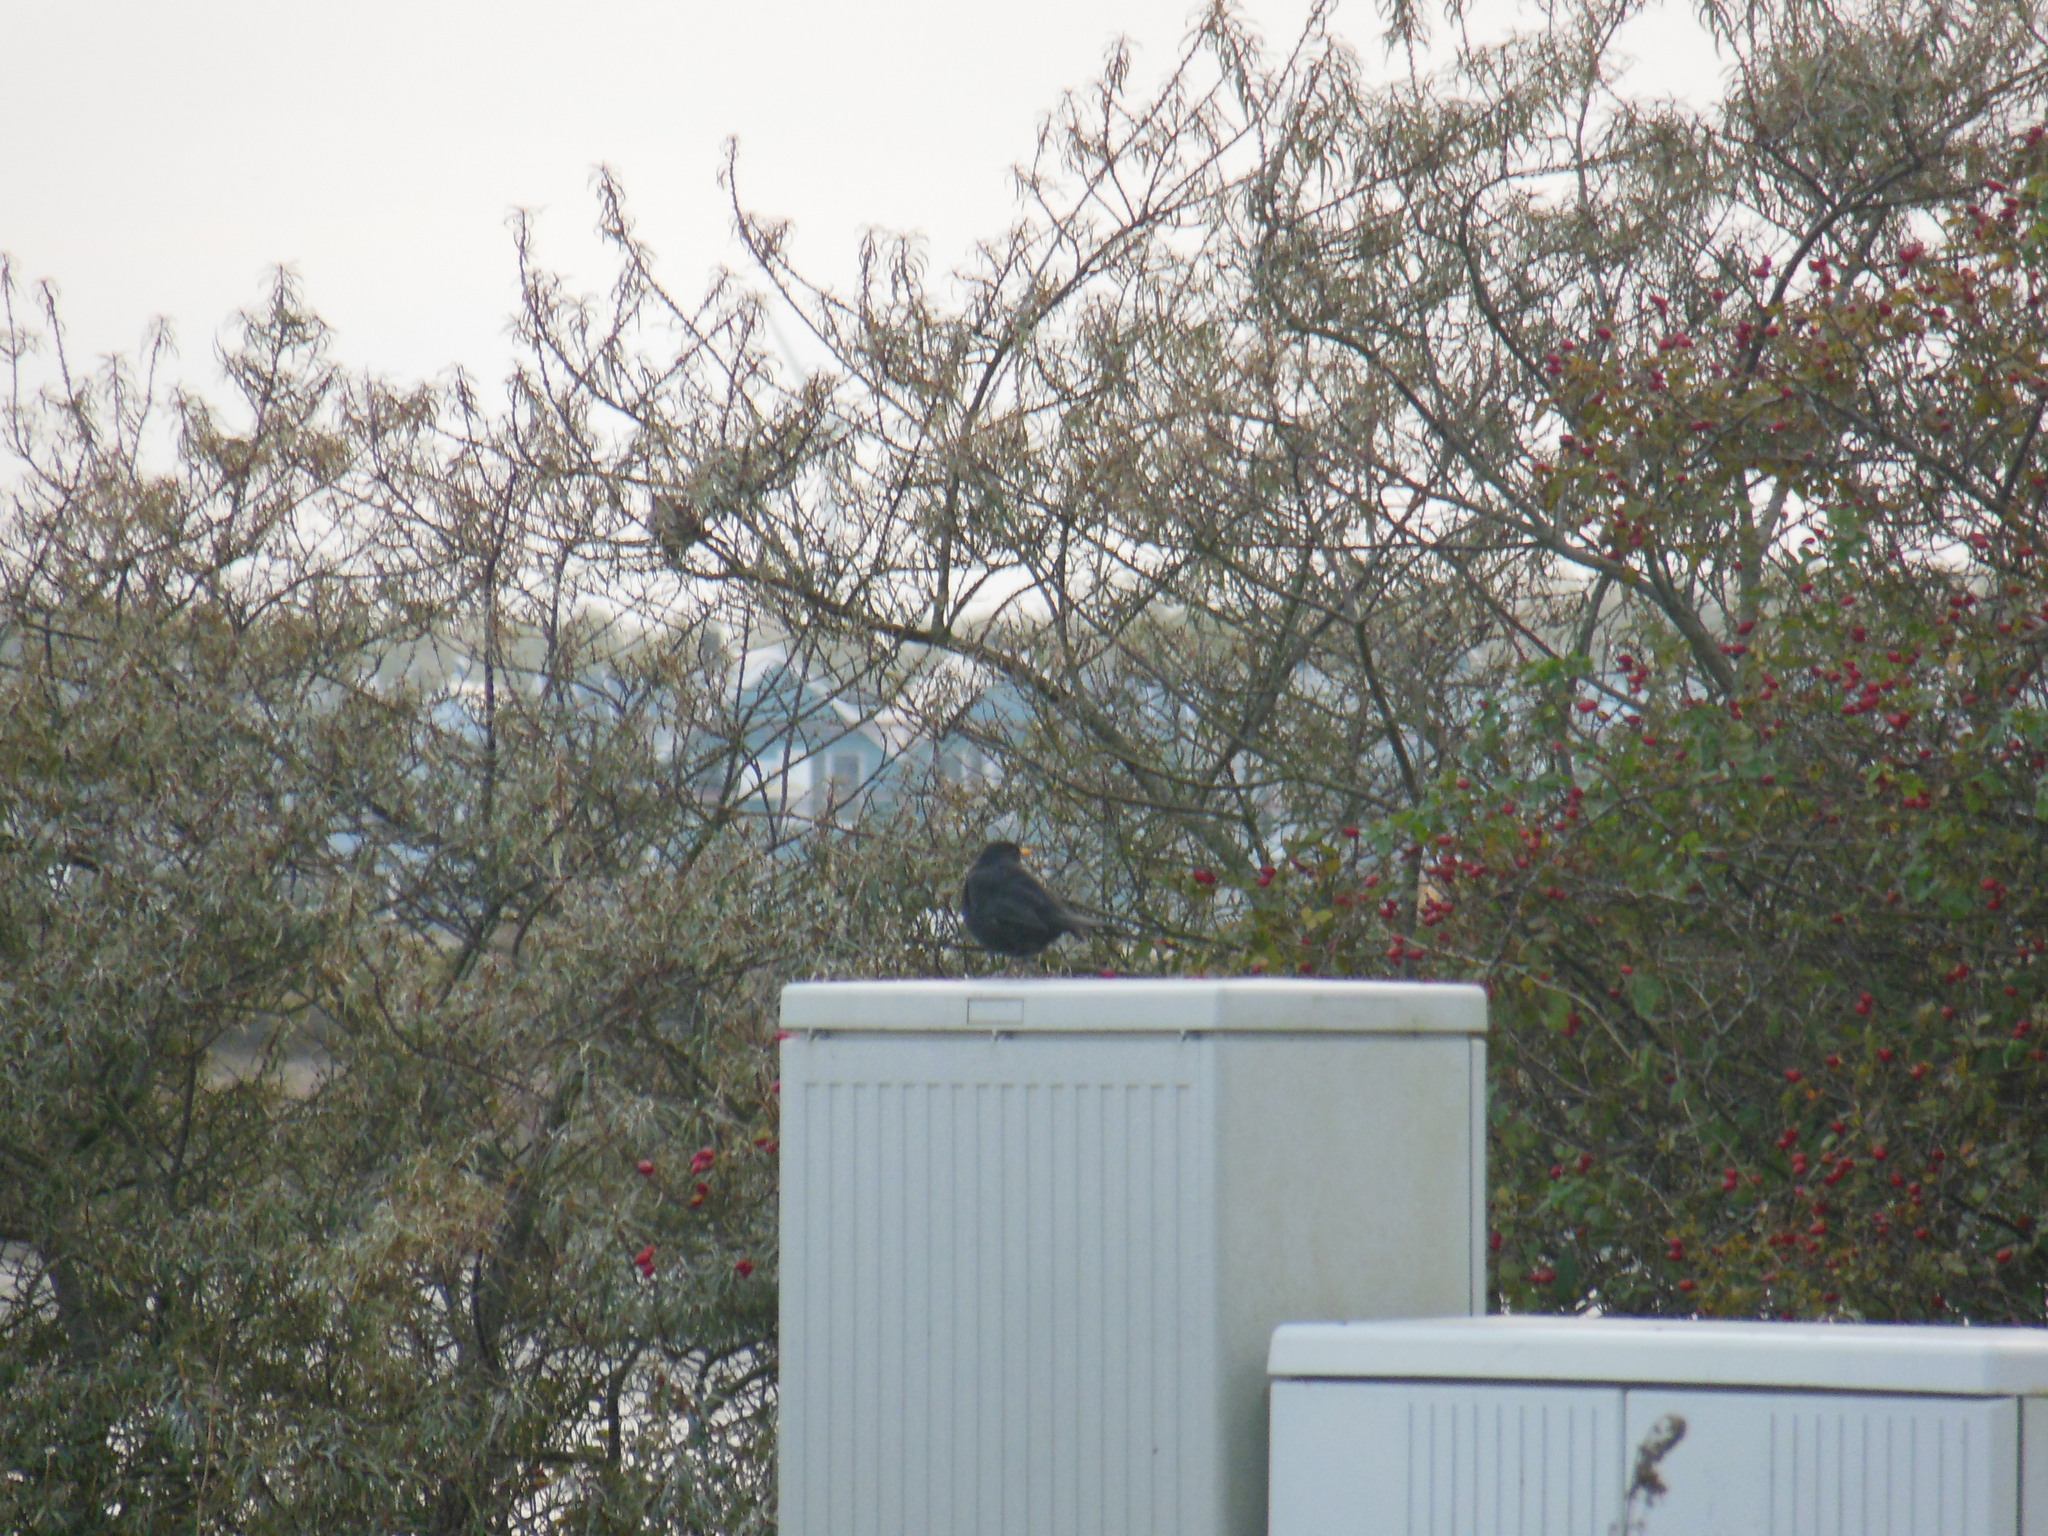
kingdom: Animalia
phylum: Chordata
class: Aves
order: Passeriformes
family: Turdidae
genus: Turdus
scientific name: Turdus merula
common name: Common blackbird
